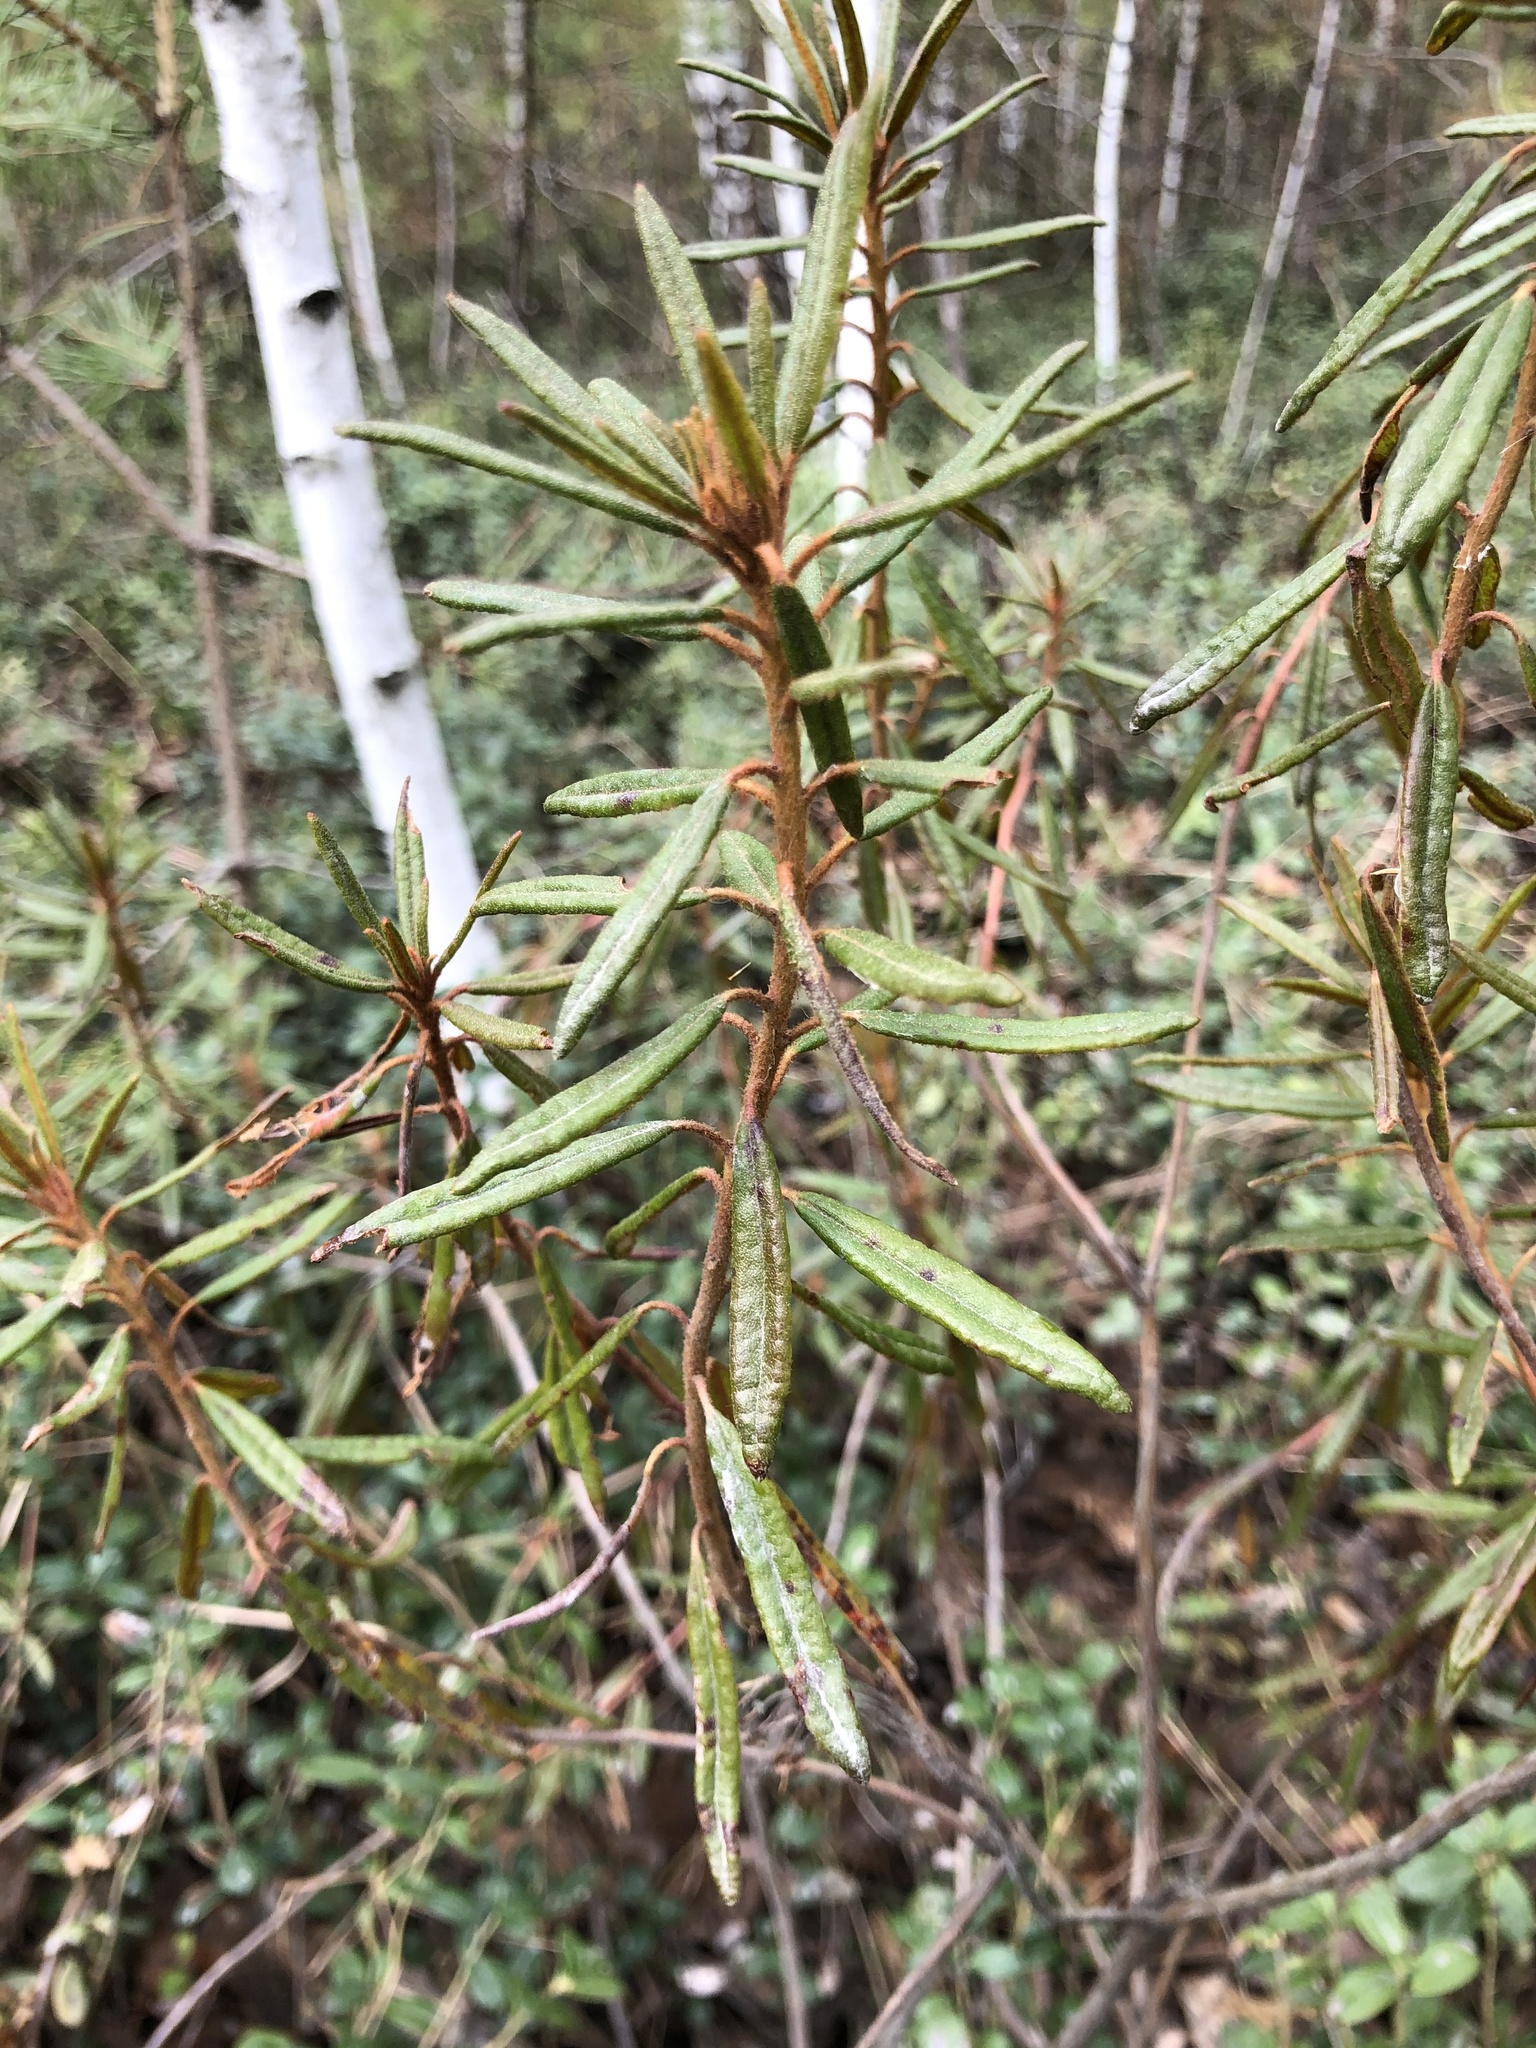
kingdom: Plantae
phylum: Tracheophyta
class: Magnoliopsida
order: Ericales
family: Ericaceae
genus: Rhododendron
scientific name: Rhododendron tomentosum
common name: Marsh labrador tea
